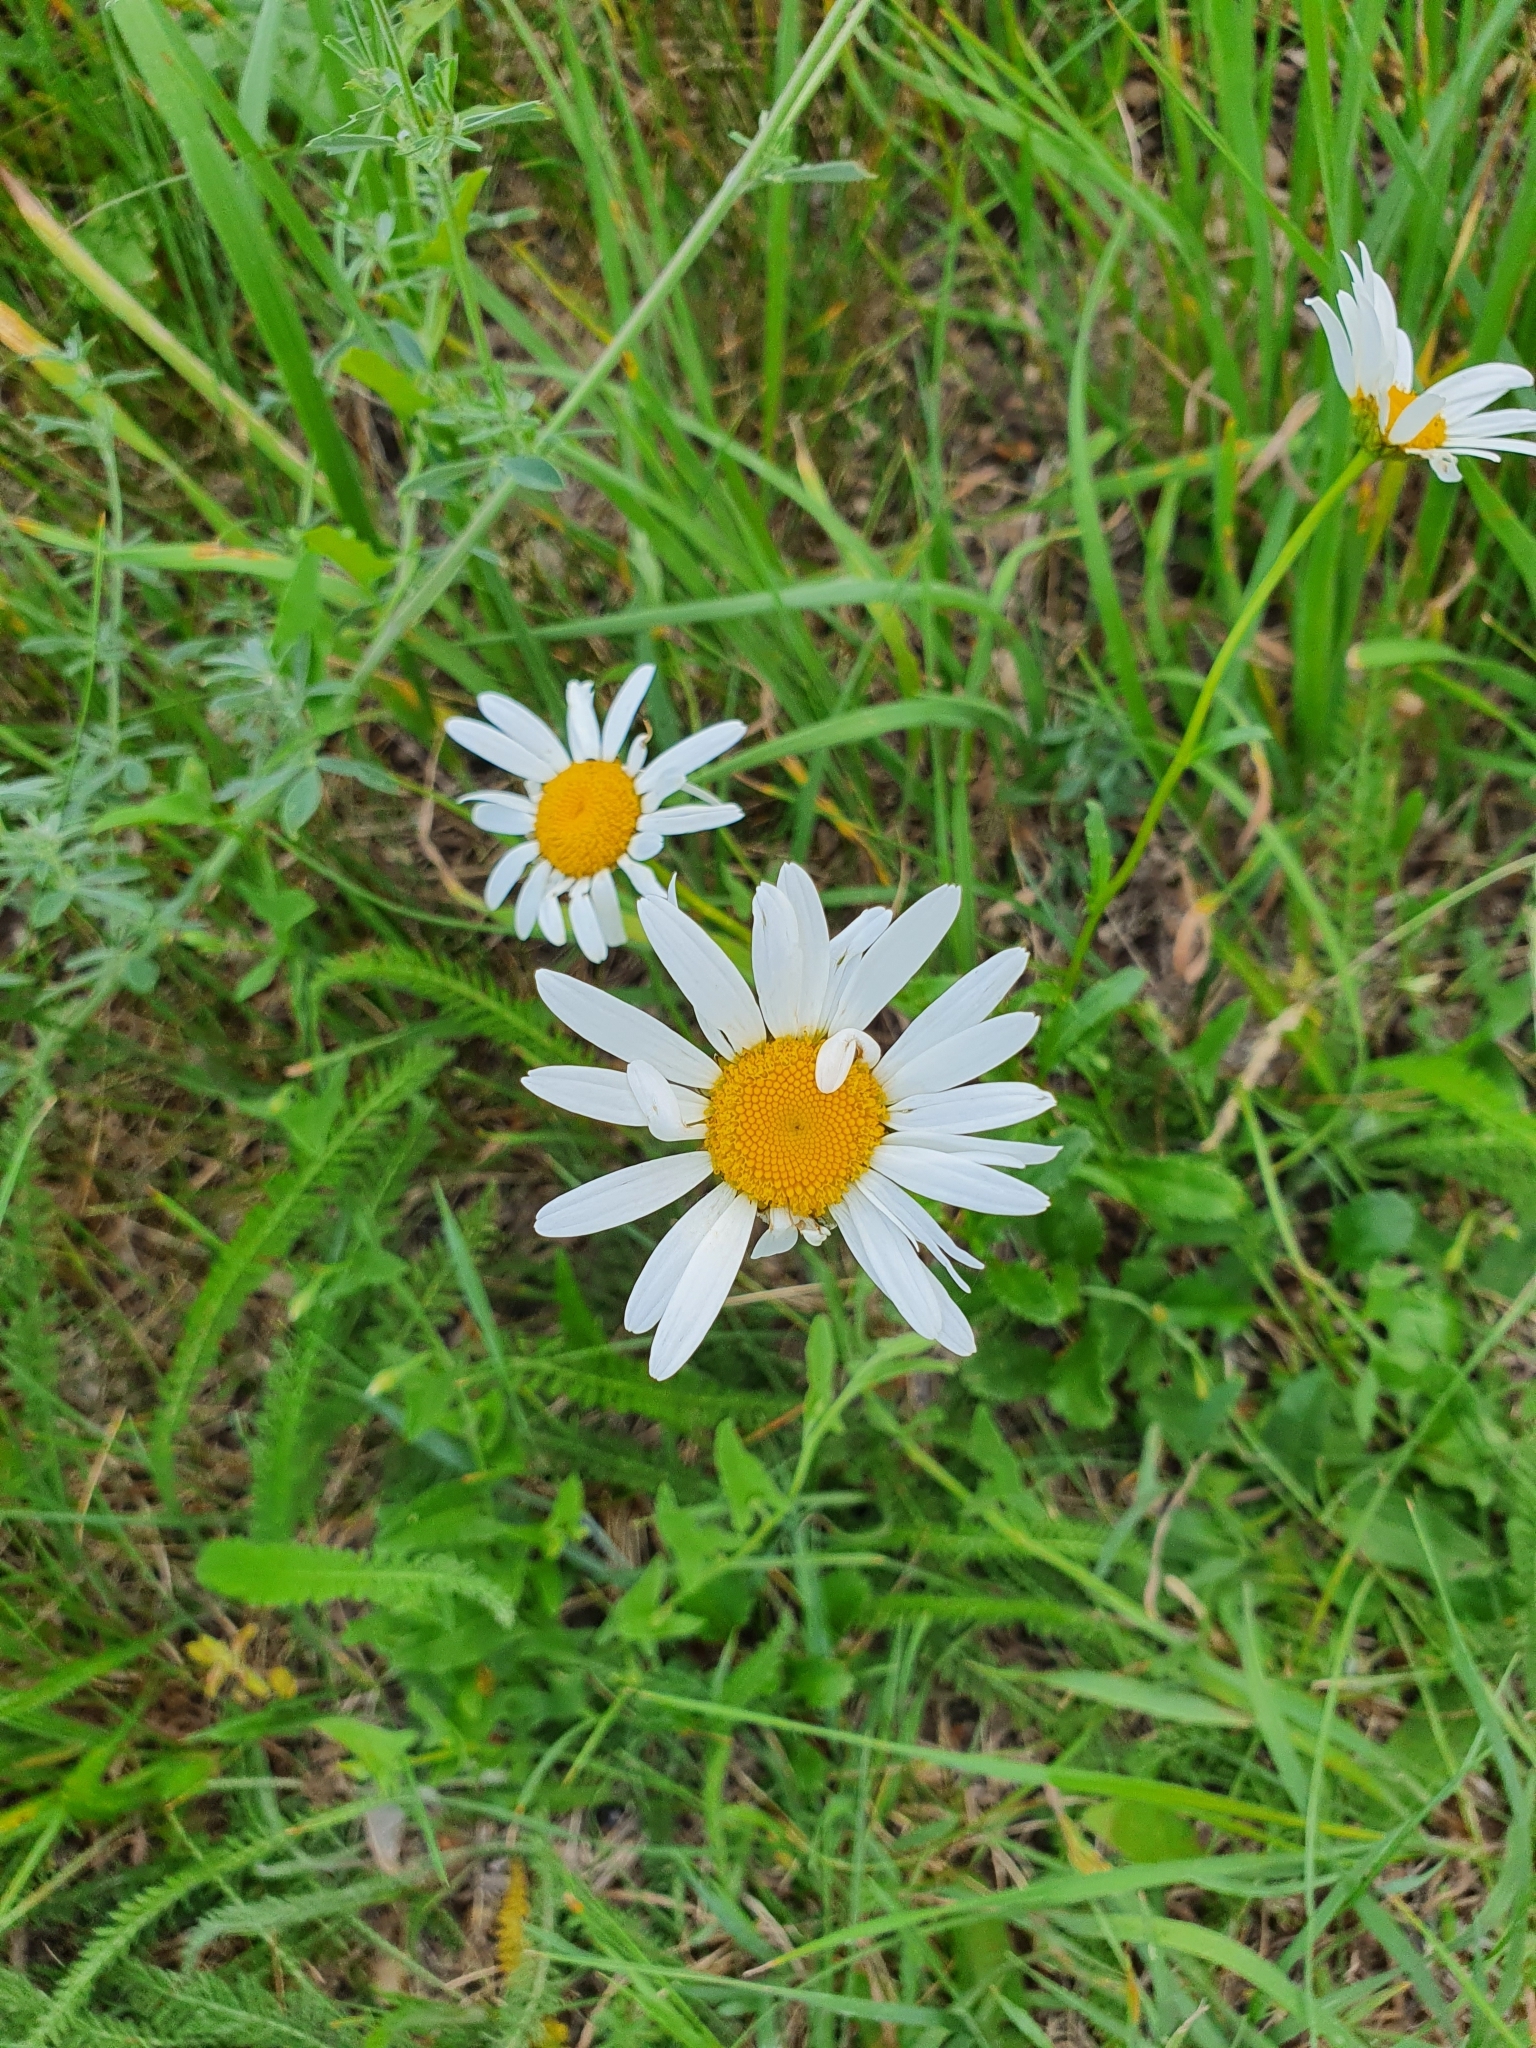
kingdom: Plantae
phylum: Tracheophyta
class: Magnoliopsida
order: Asterales
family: Asteraceae
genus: Leucanthemum
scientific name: Leucanthemum vulgare
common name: Oxeye daisy
